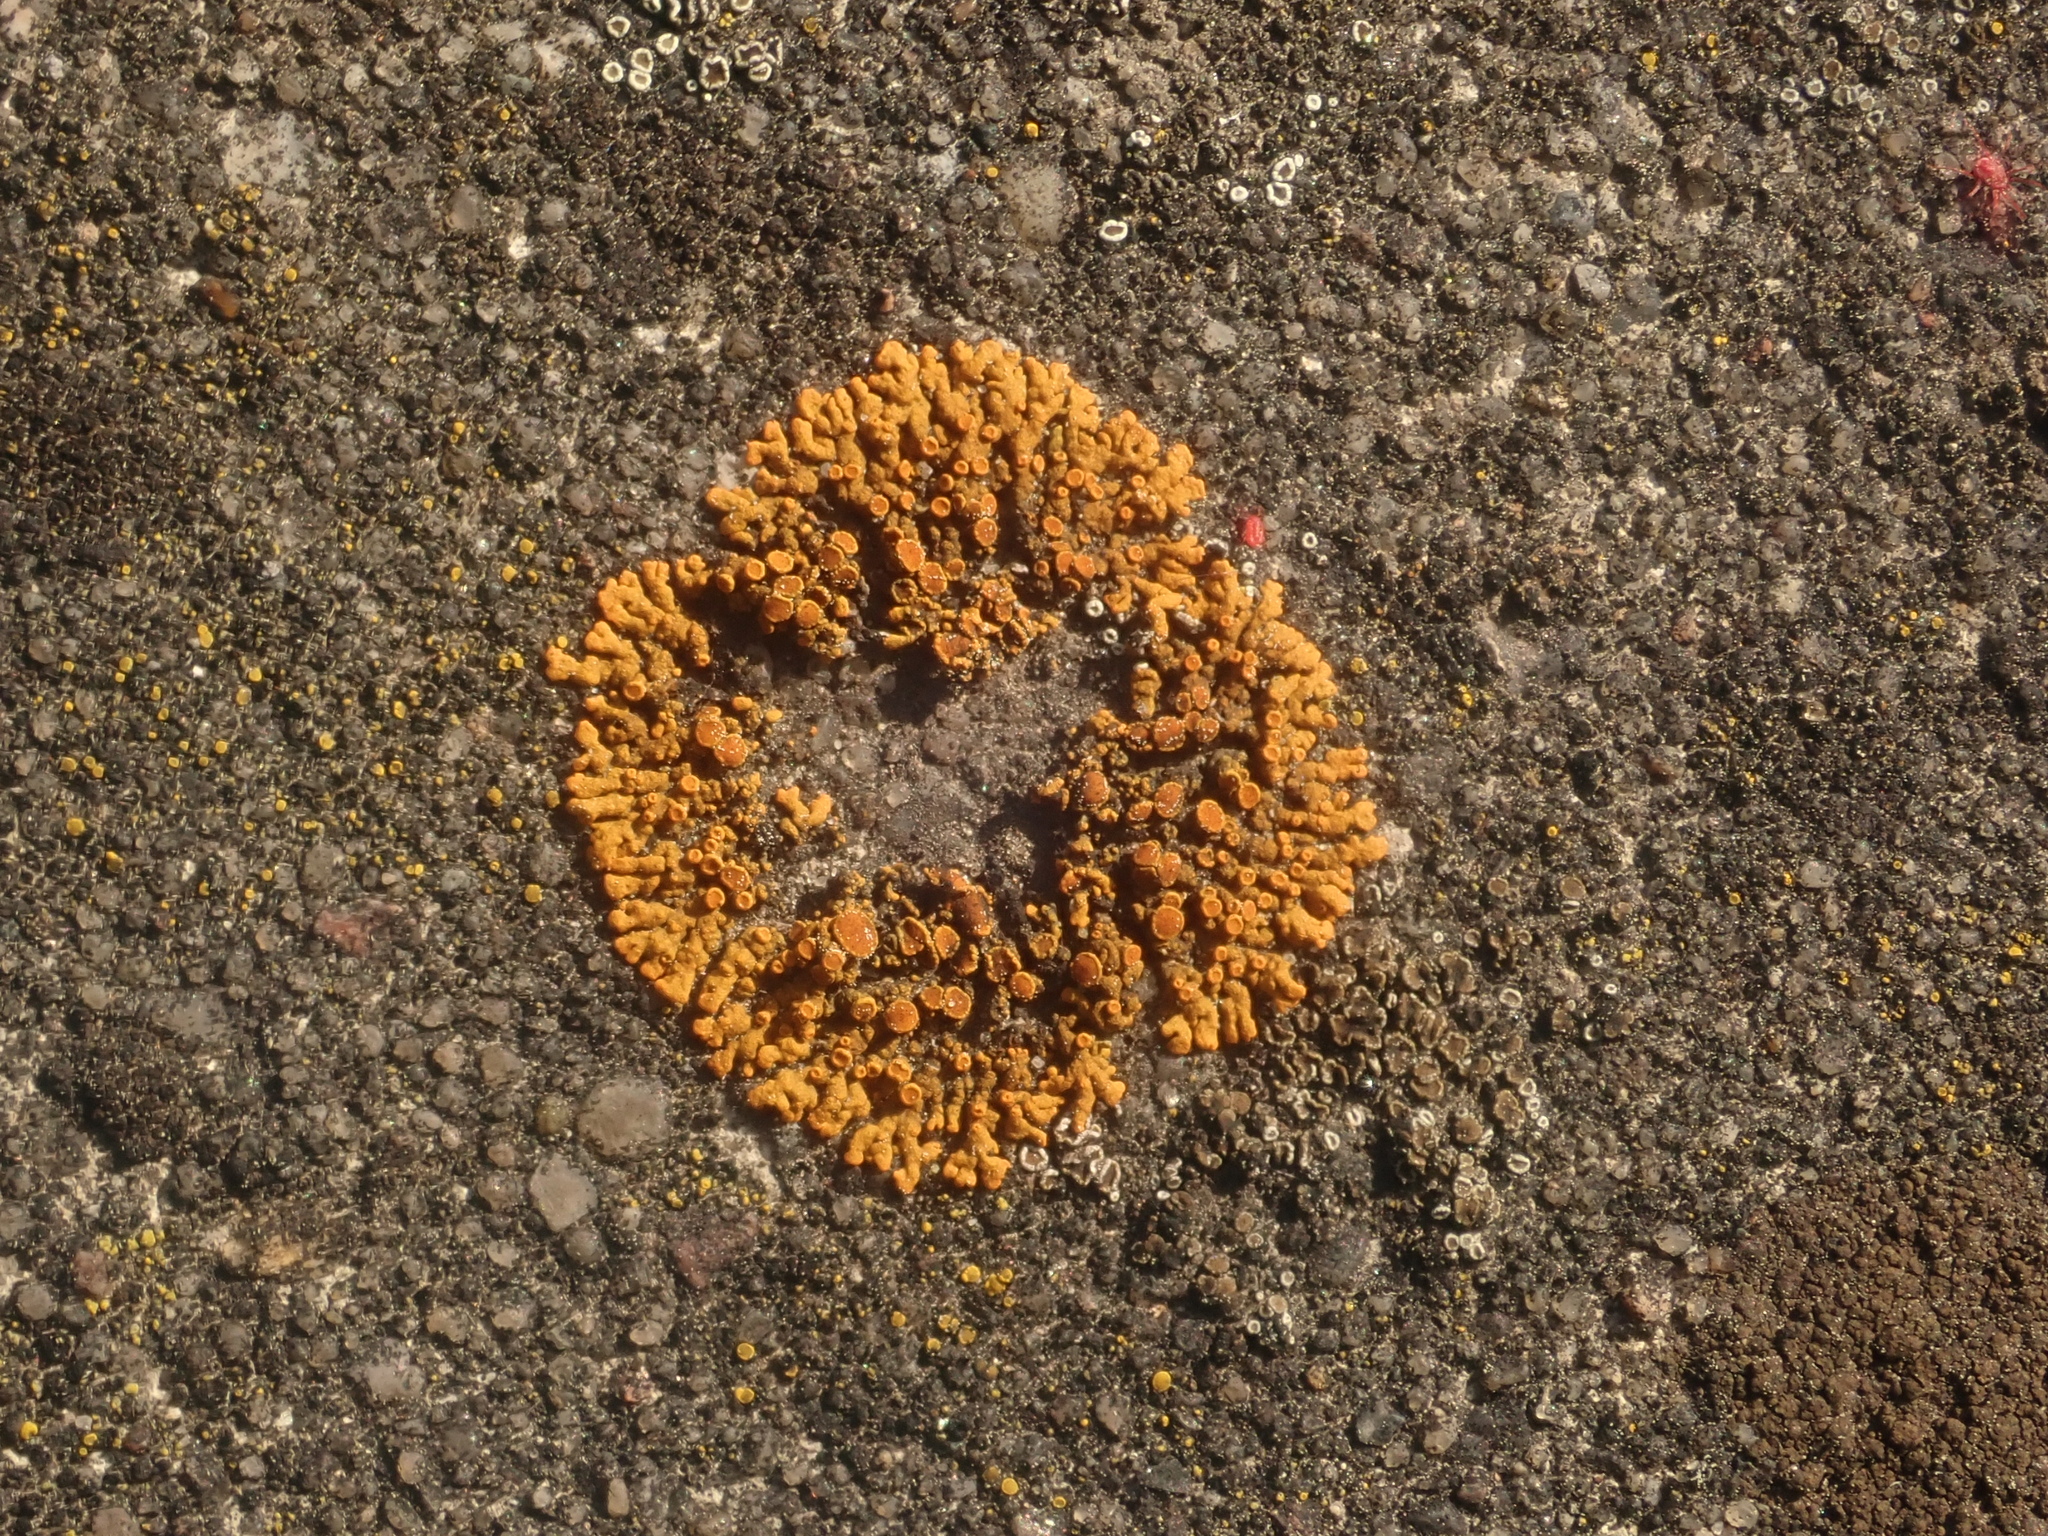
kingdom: Fungi
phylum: Ascomycota
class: Lecanoromycetes
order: Teloschistales
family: Teloschistaceae
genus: Xanthoria
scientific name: Xanthoria elegans
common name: Elegant sunburst lichen
